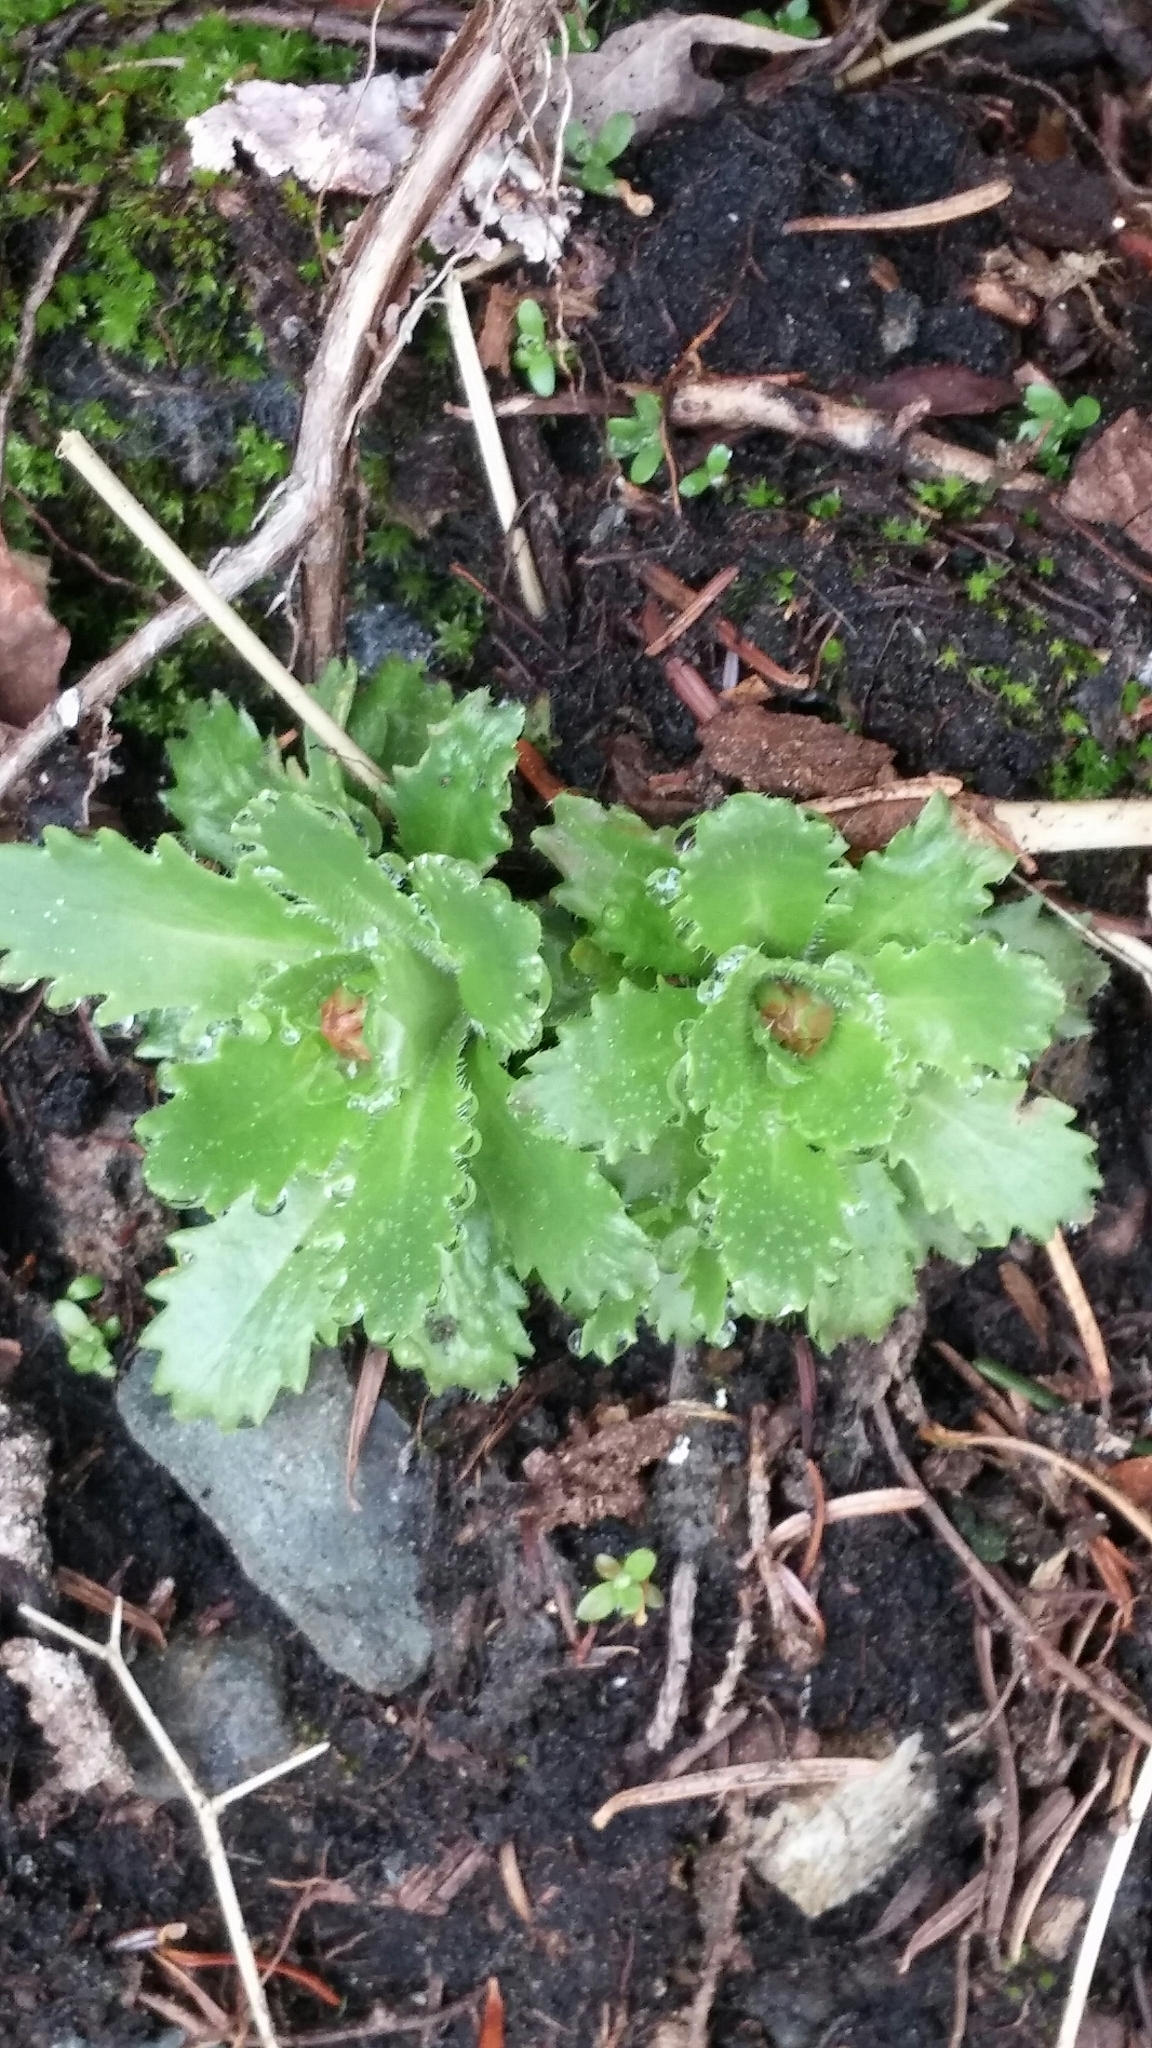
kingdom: Plantae
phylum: Tracheophyta
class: Magnoliopsida
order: Saxifragales
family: Saxifragaceae
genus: Micranthes
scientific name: Micranthes ferruginea
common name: Rusty saxifrage
